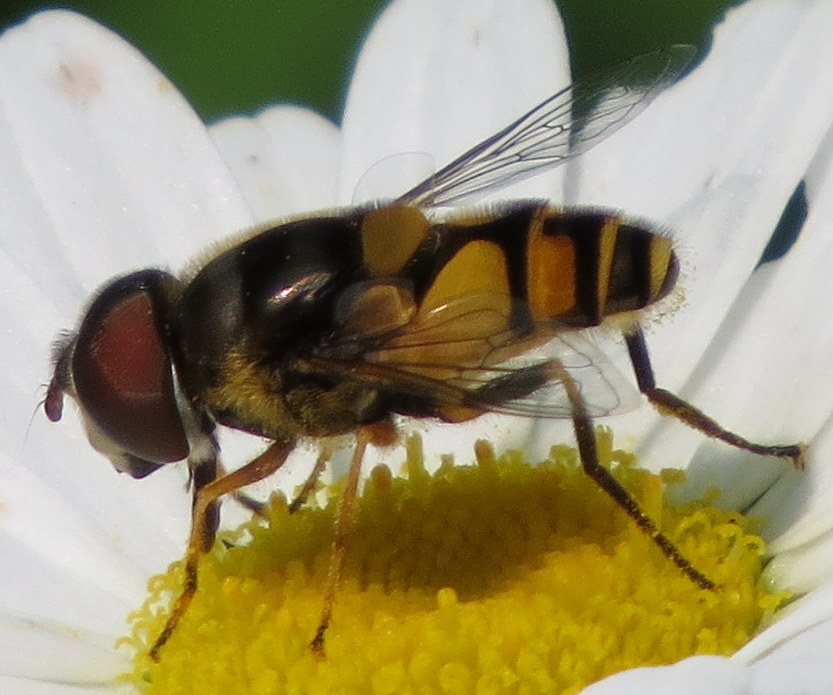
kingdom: Animalia
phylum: Arthropoda
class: Insecta
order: Diptera
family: Syrphidae
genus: Eristalis
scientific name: Eristalis transversa
